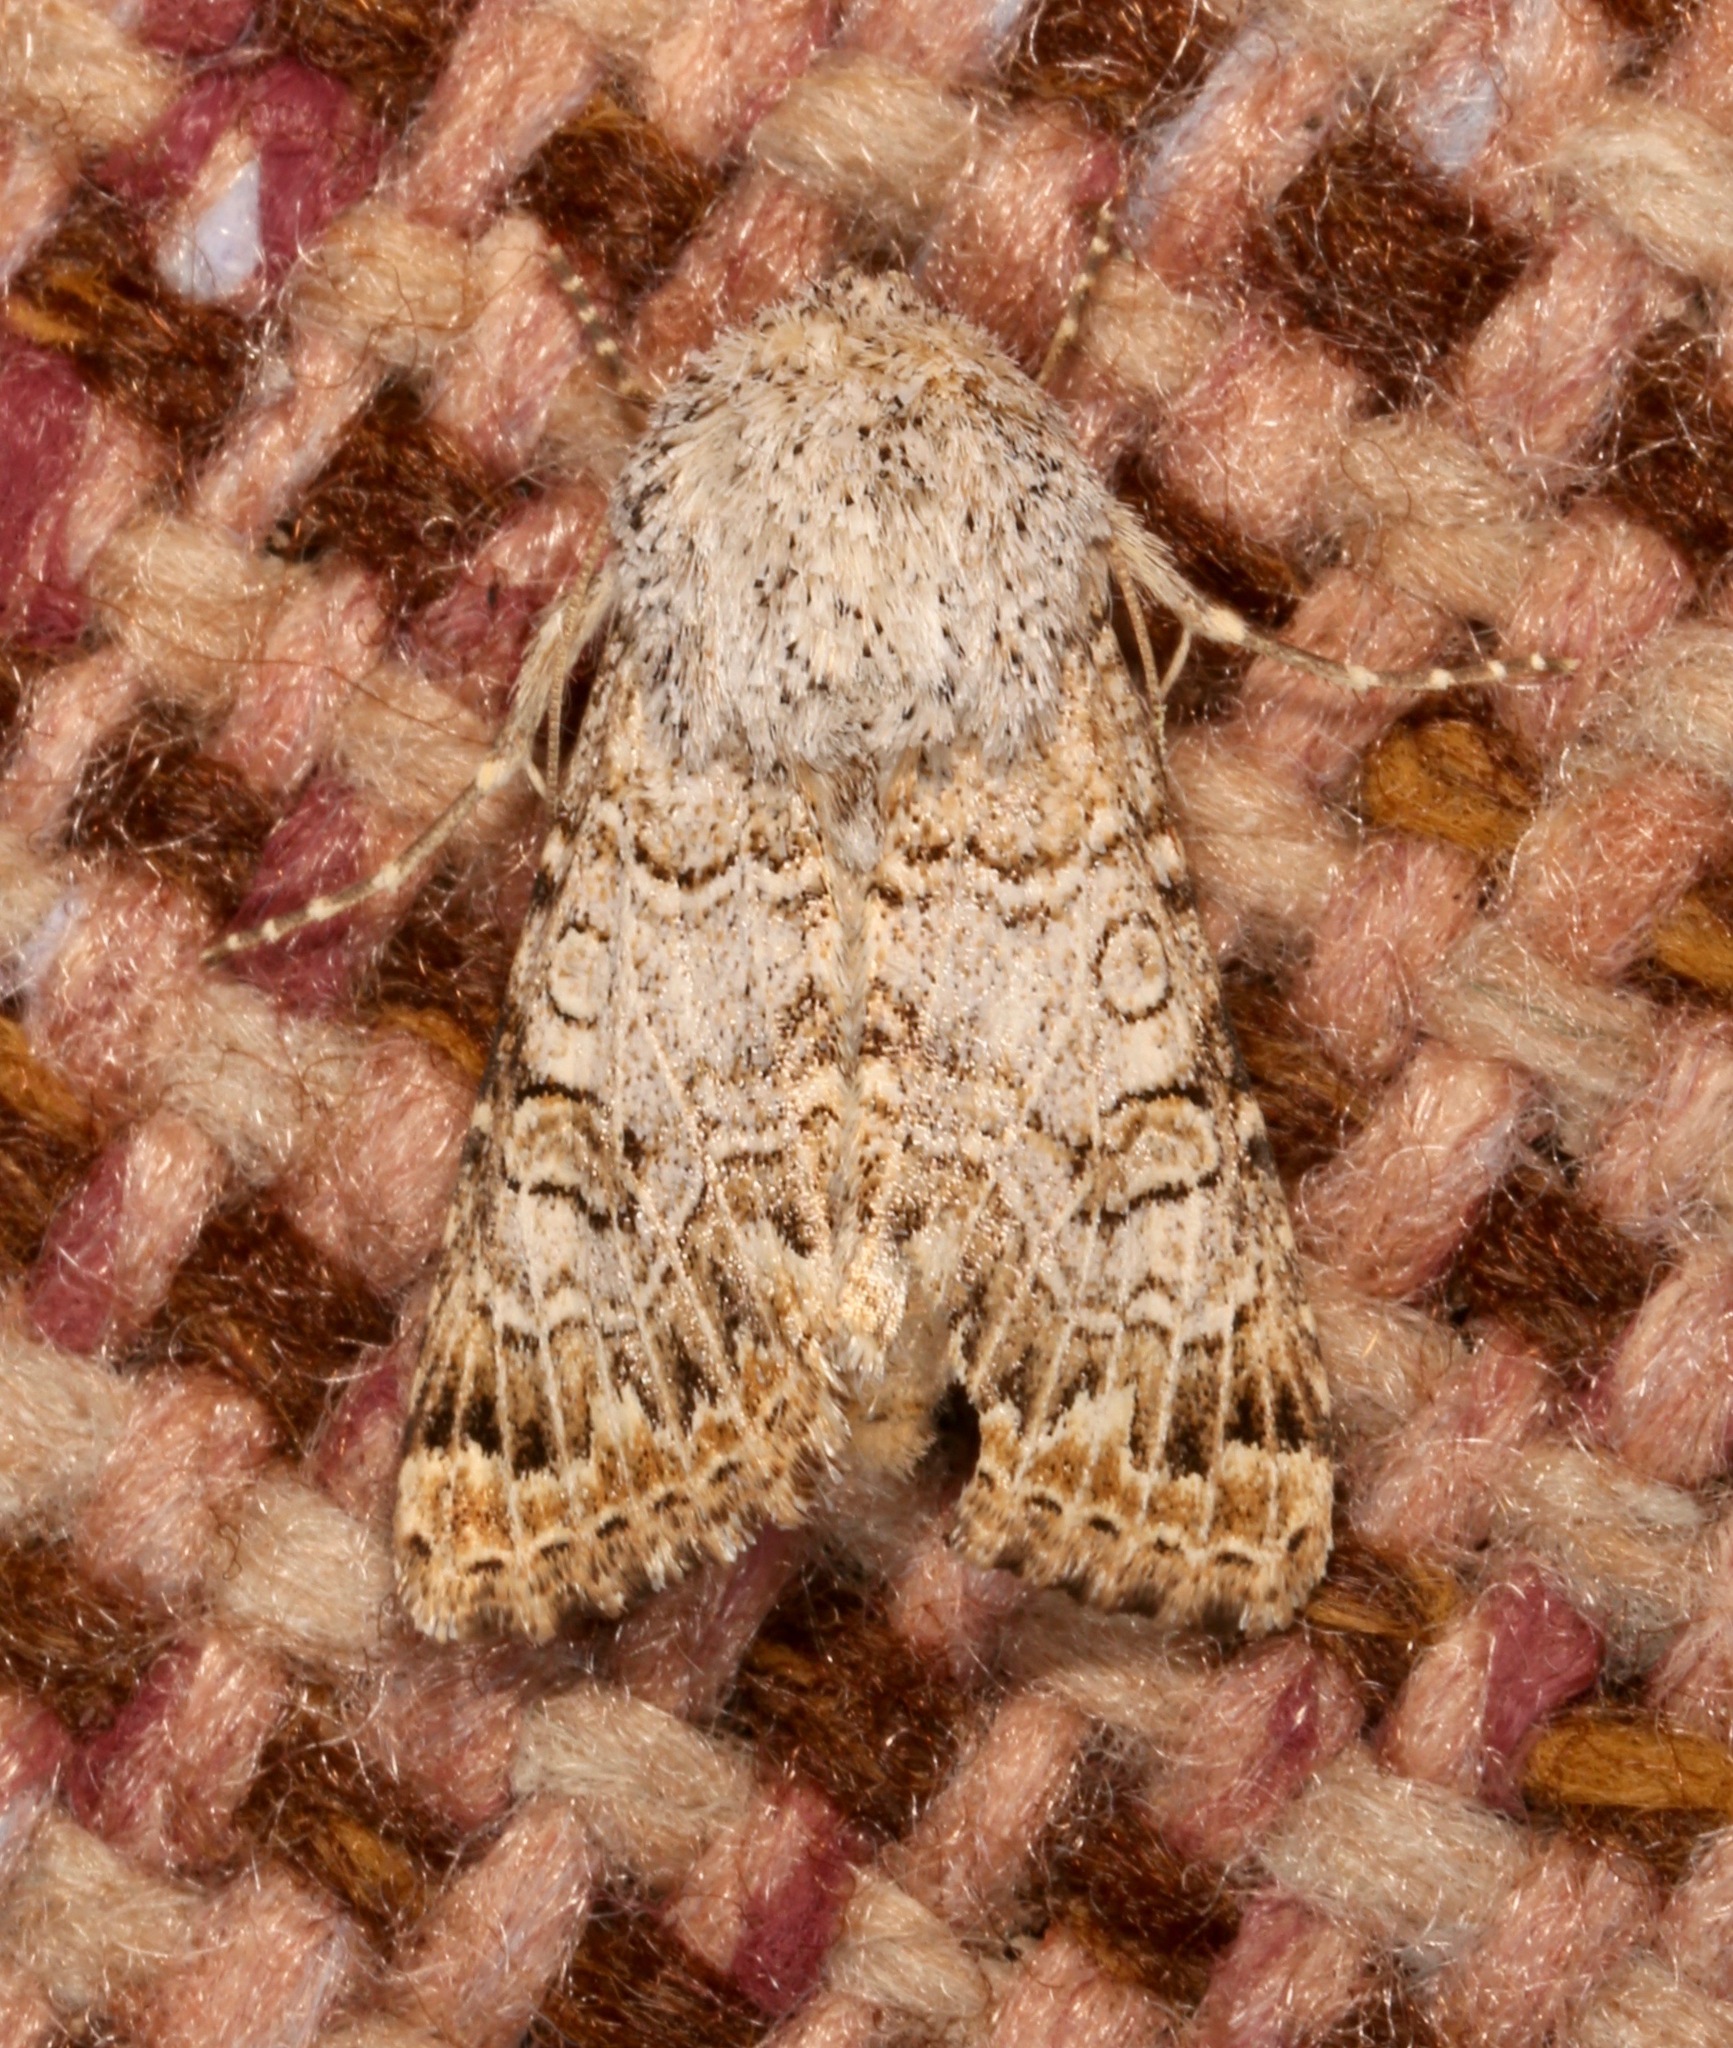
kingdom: Animalia
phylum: Arthropoda
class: Insecta
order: Lepidoptera
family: Noctuidae
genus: Schinia
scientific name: Schinia deserticola
